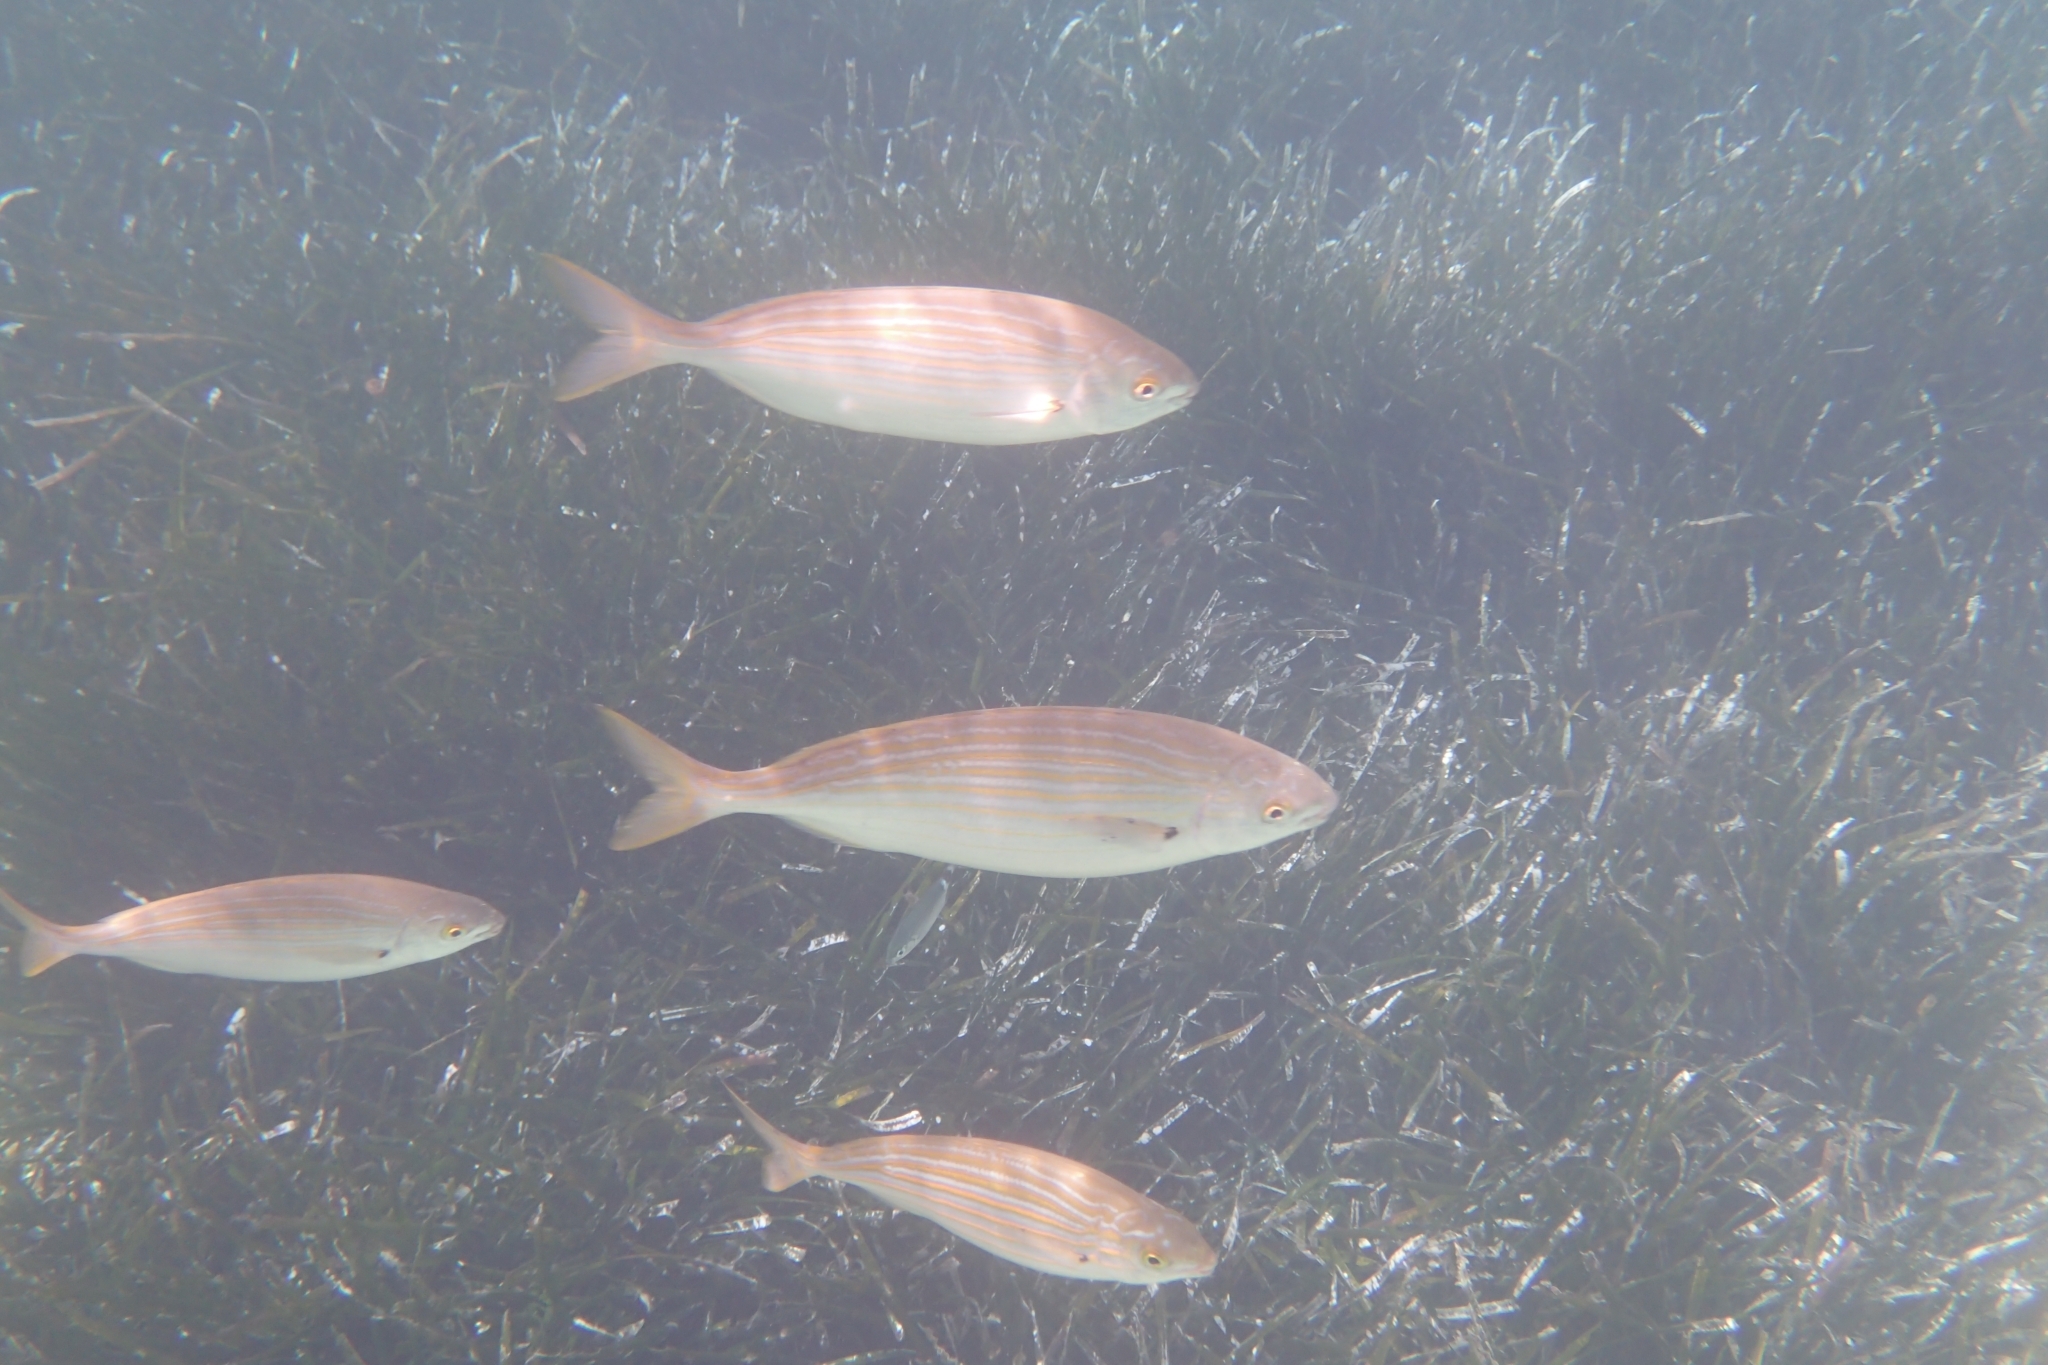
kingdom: Animalia
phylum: Chordata
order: Perciformes
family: Sparidae
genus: Sarpa
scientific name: Sarpa salpa
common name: Salema
